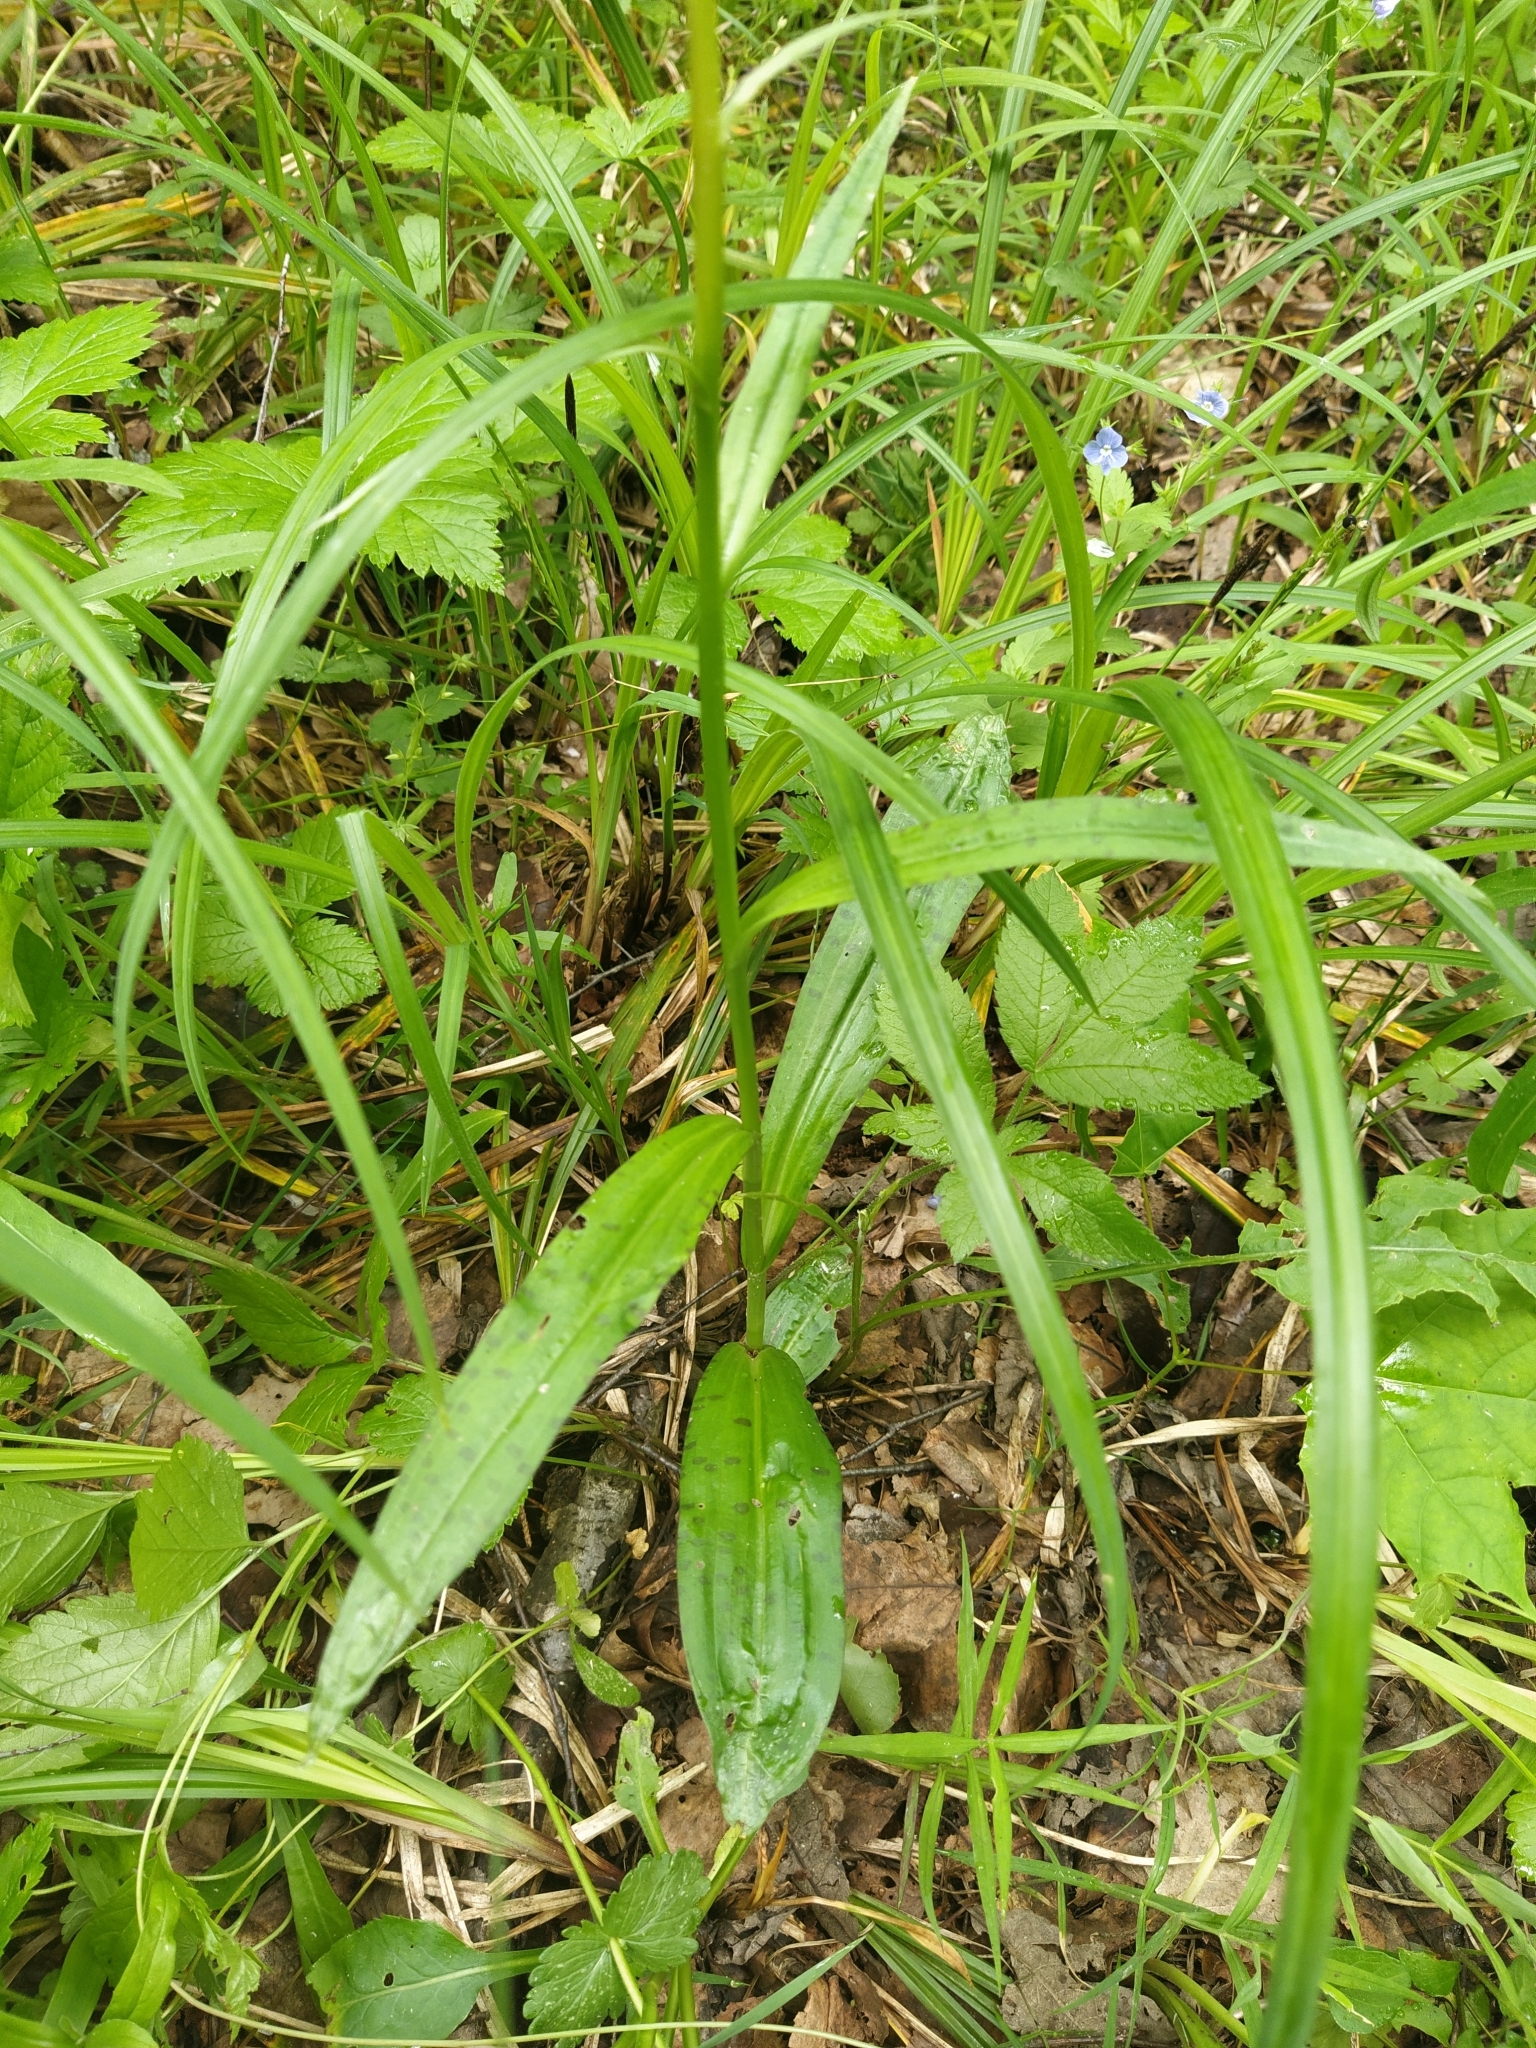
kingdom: Plantae
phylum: Tracheophyta
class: Liliopsida
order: Asparagales
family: Orchidaceae
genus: Dactylorhiza
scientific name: Dactylorhiza maculata
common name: Heath spotted-orchid
